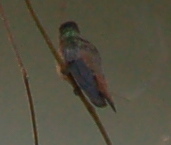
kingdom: Animalia
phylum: Chordata
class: Aves
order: Apodiformes
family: Trochilidae
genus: Amazilia
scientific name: Amazilia rutila
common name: Cinnamon hummingbird
